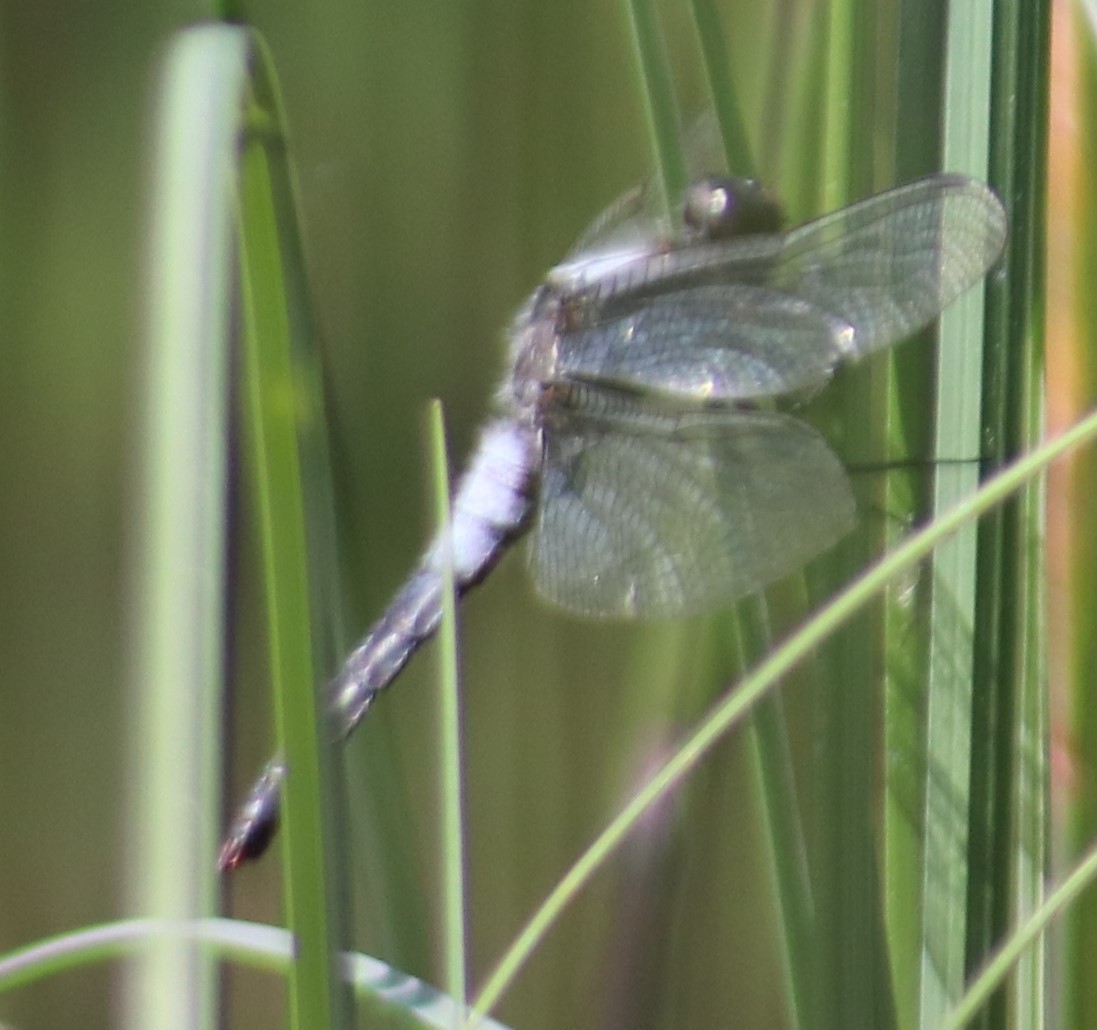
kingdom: Animalia
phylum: Arthropoda
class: Insecta
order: Odonata
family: Libellulidae
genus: Ladona
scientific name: Ladona julia
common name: Chalk-fronted corporal
